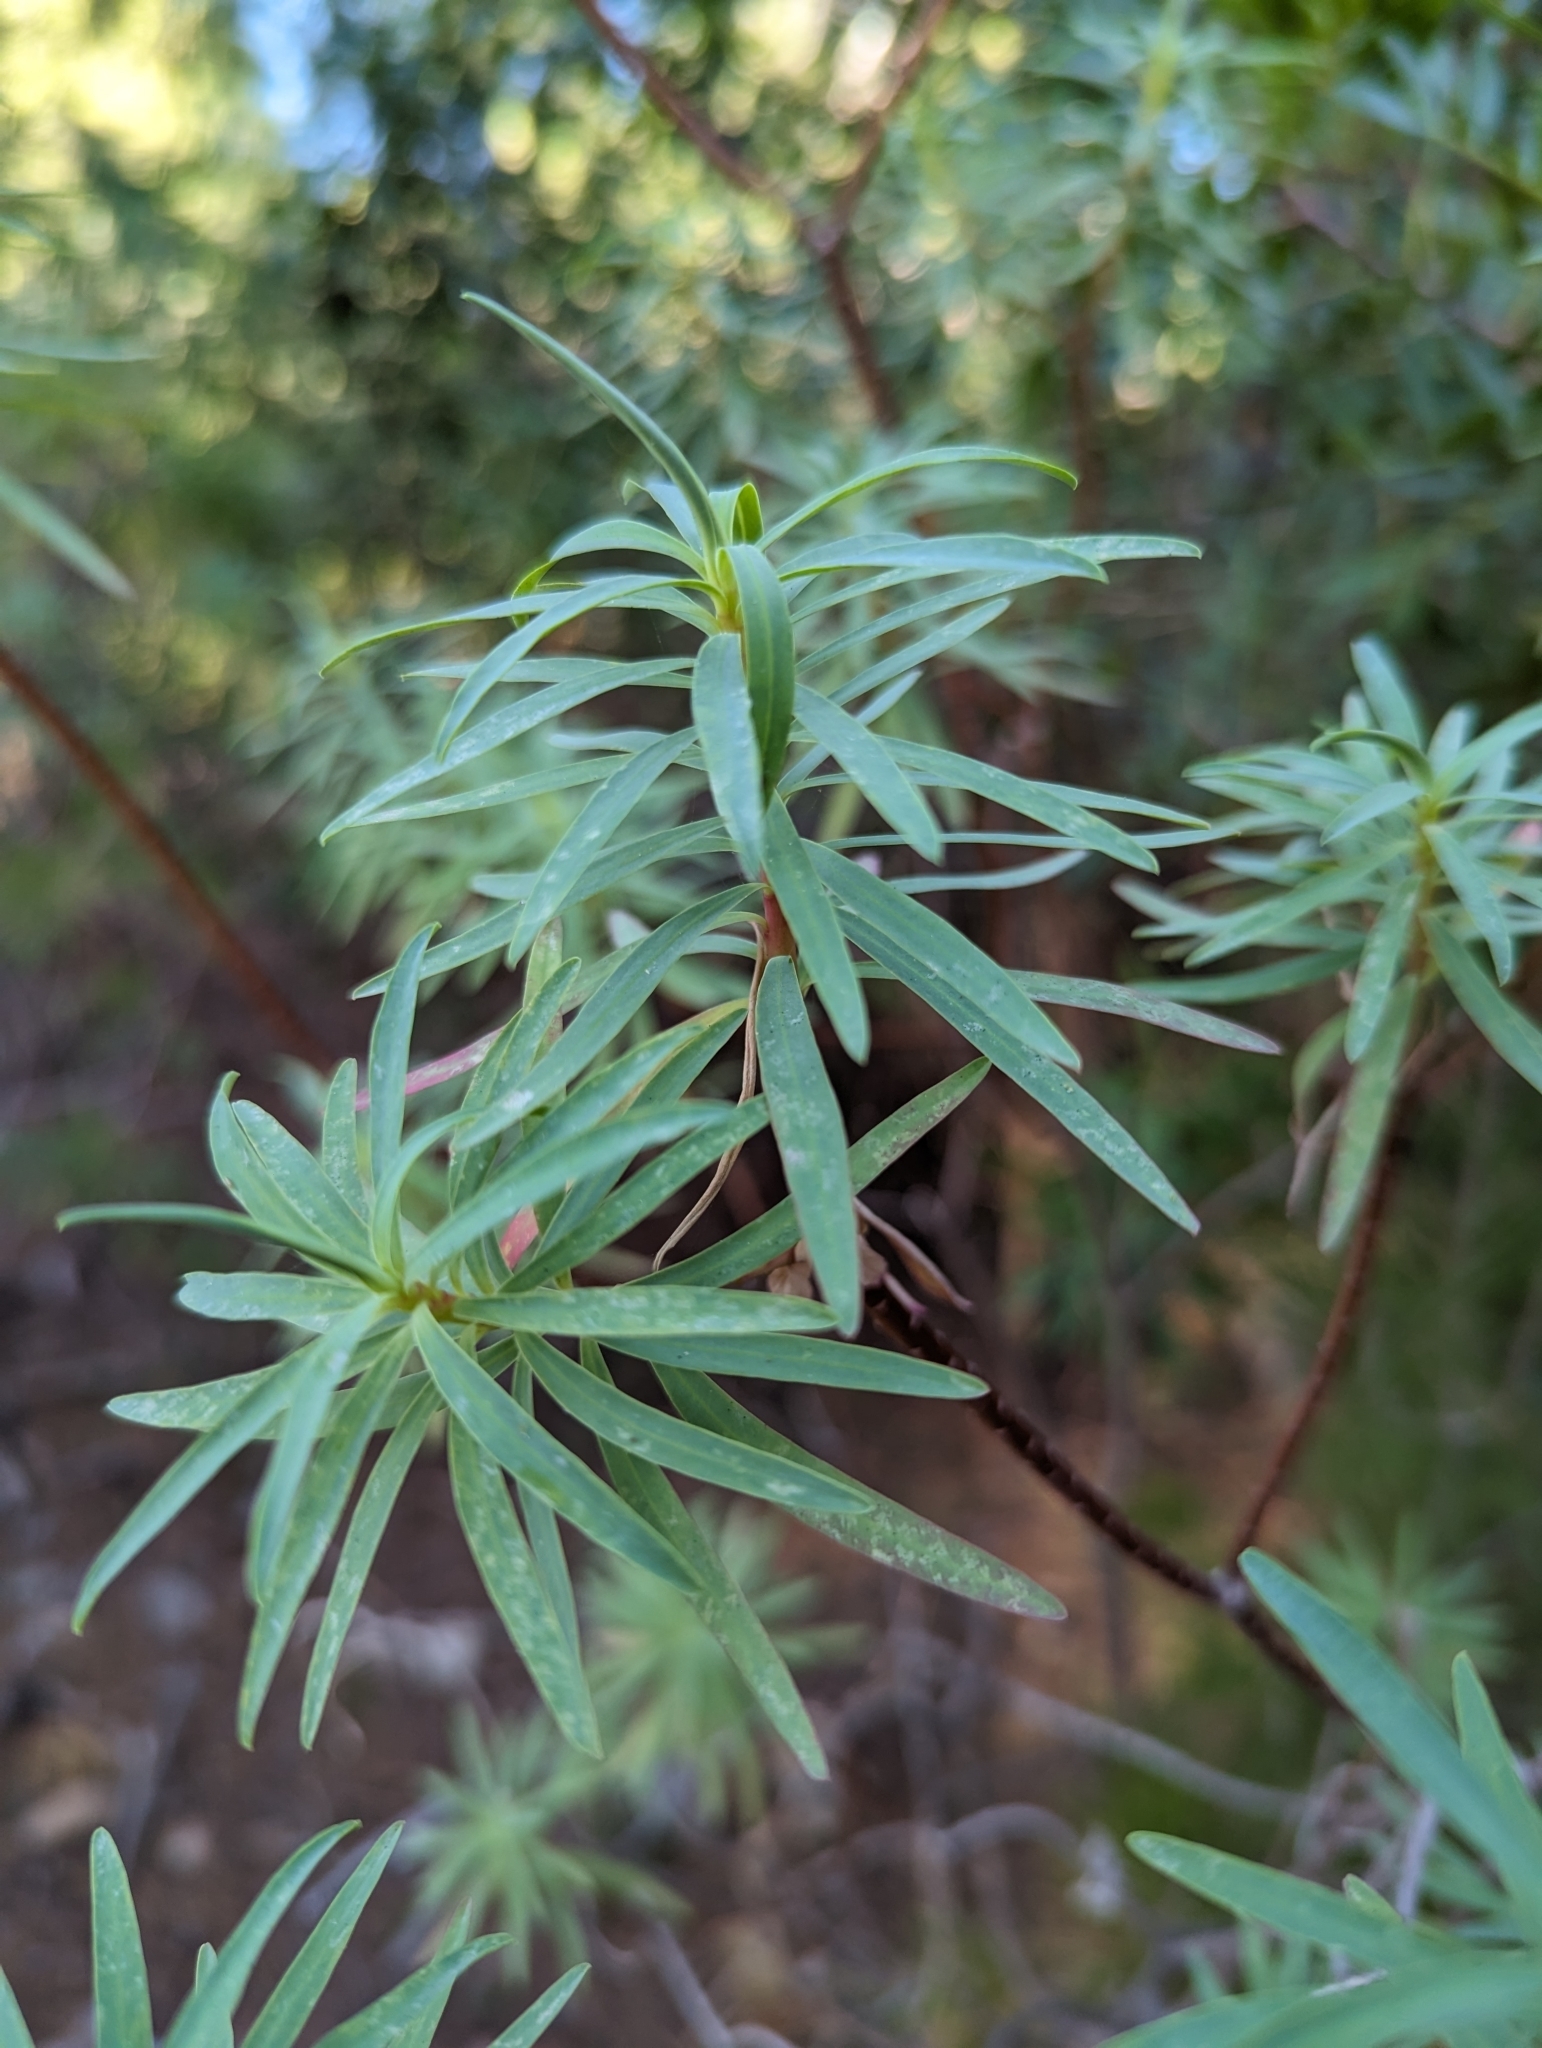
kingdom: Plantae
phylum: Tracheophyta
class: Magnoliopsida
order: Malpighiales
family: Euphorbiaceae
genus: Euphorbia
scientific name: Euphorbia dendroides
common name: Tree spurge
